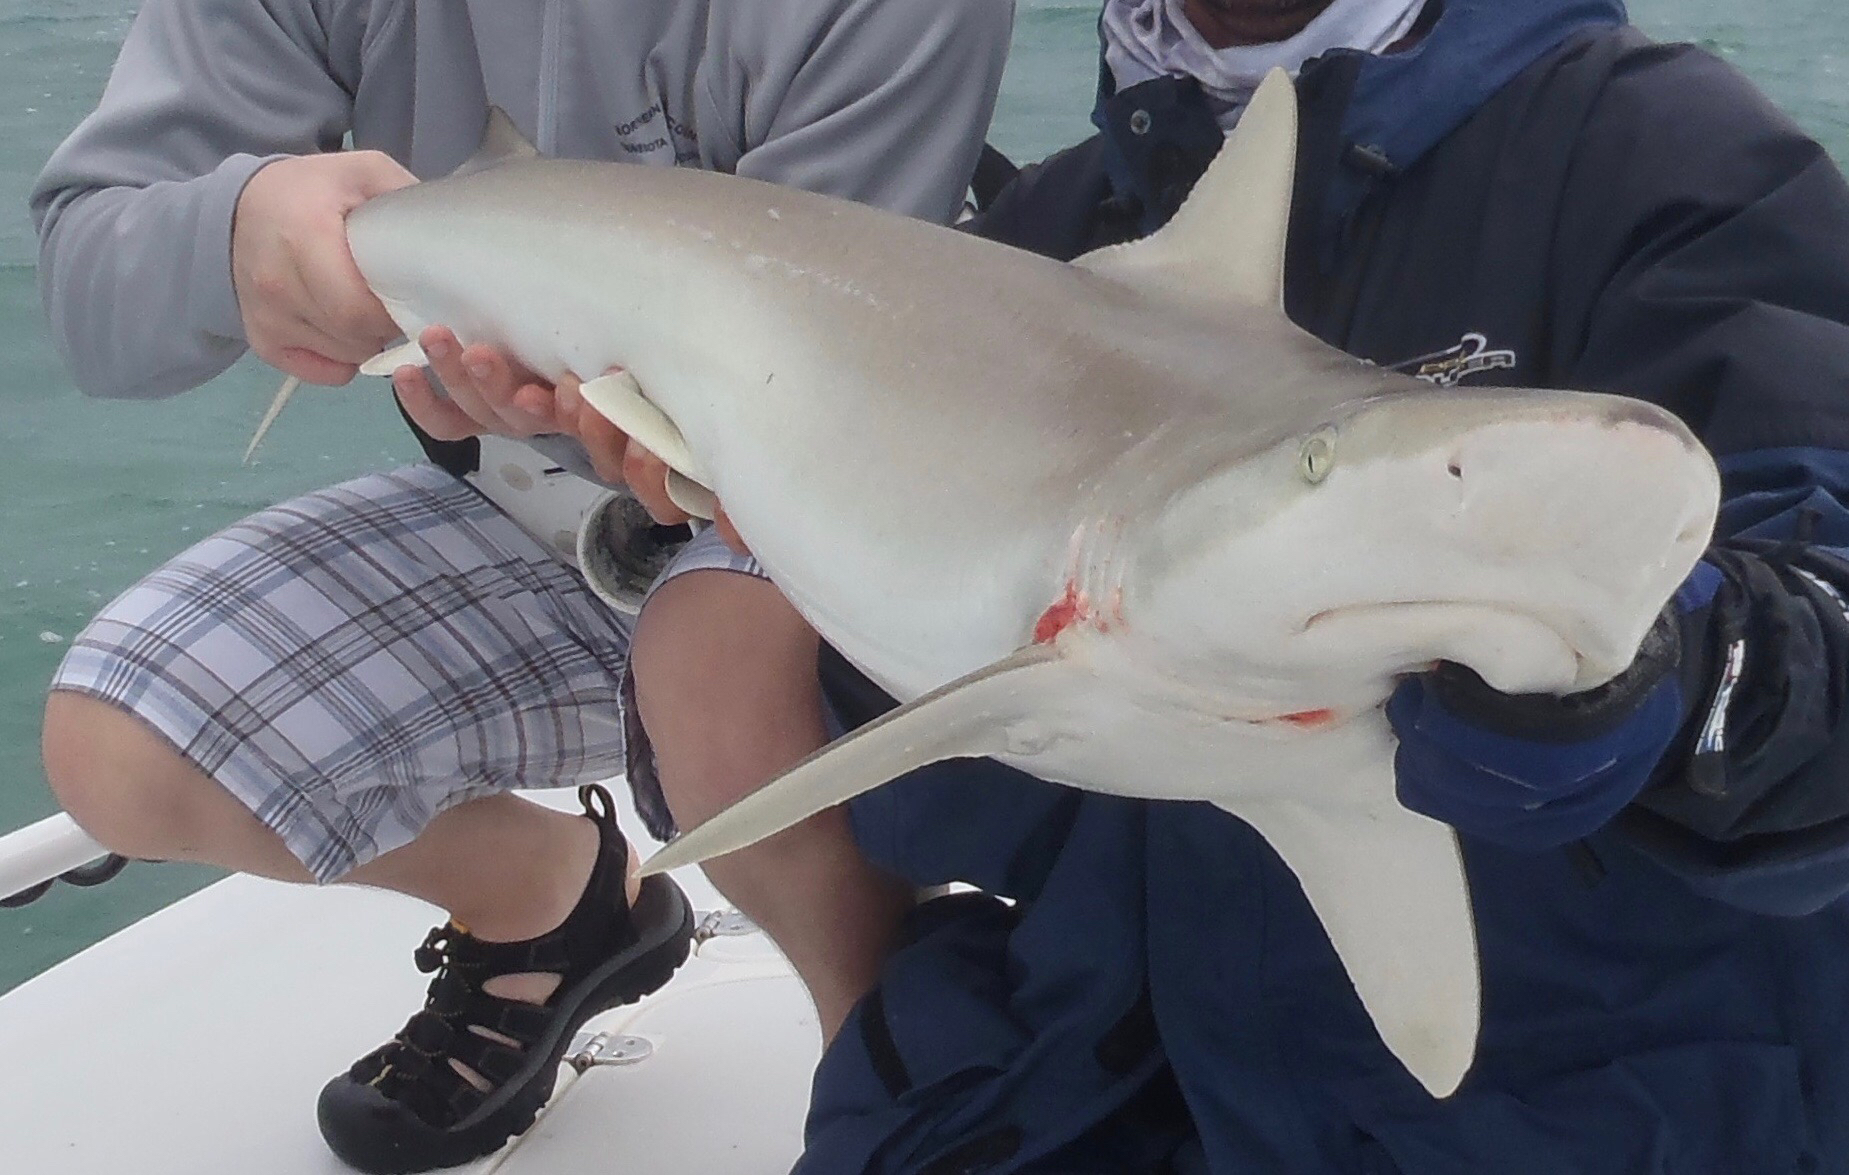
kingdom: Animalia
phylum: Chordata
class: Elasmobranchii
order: Carcharhiniformes
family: Carcharhinidae
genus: Carcharhinus
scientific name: Carcharhinus acronotus
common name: Blacknose shark
